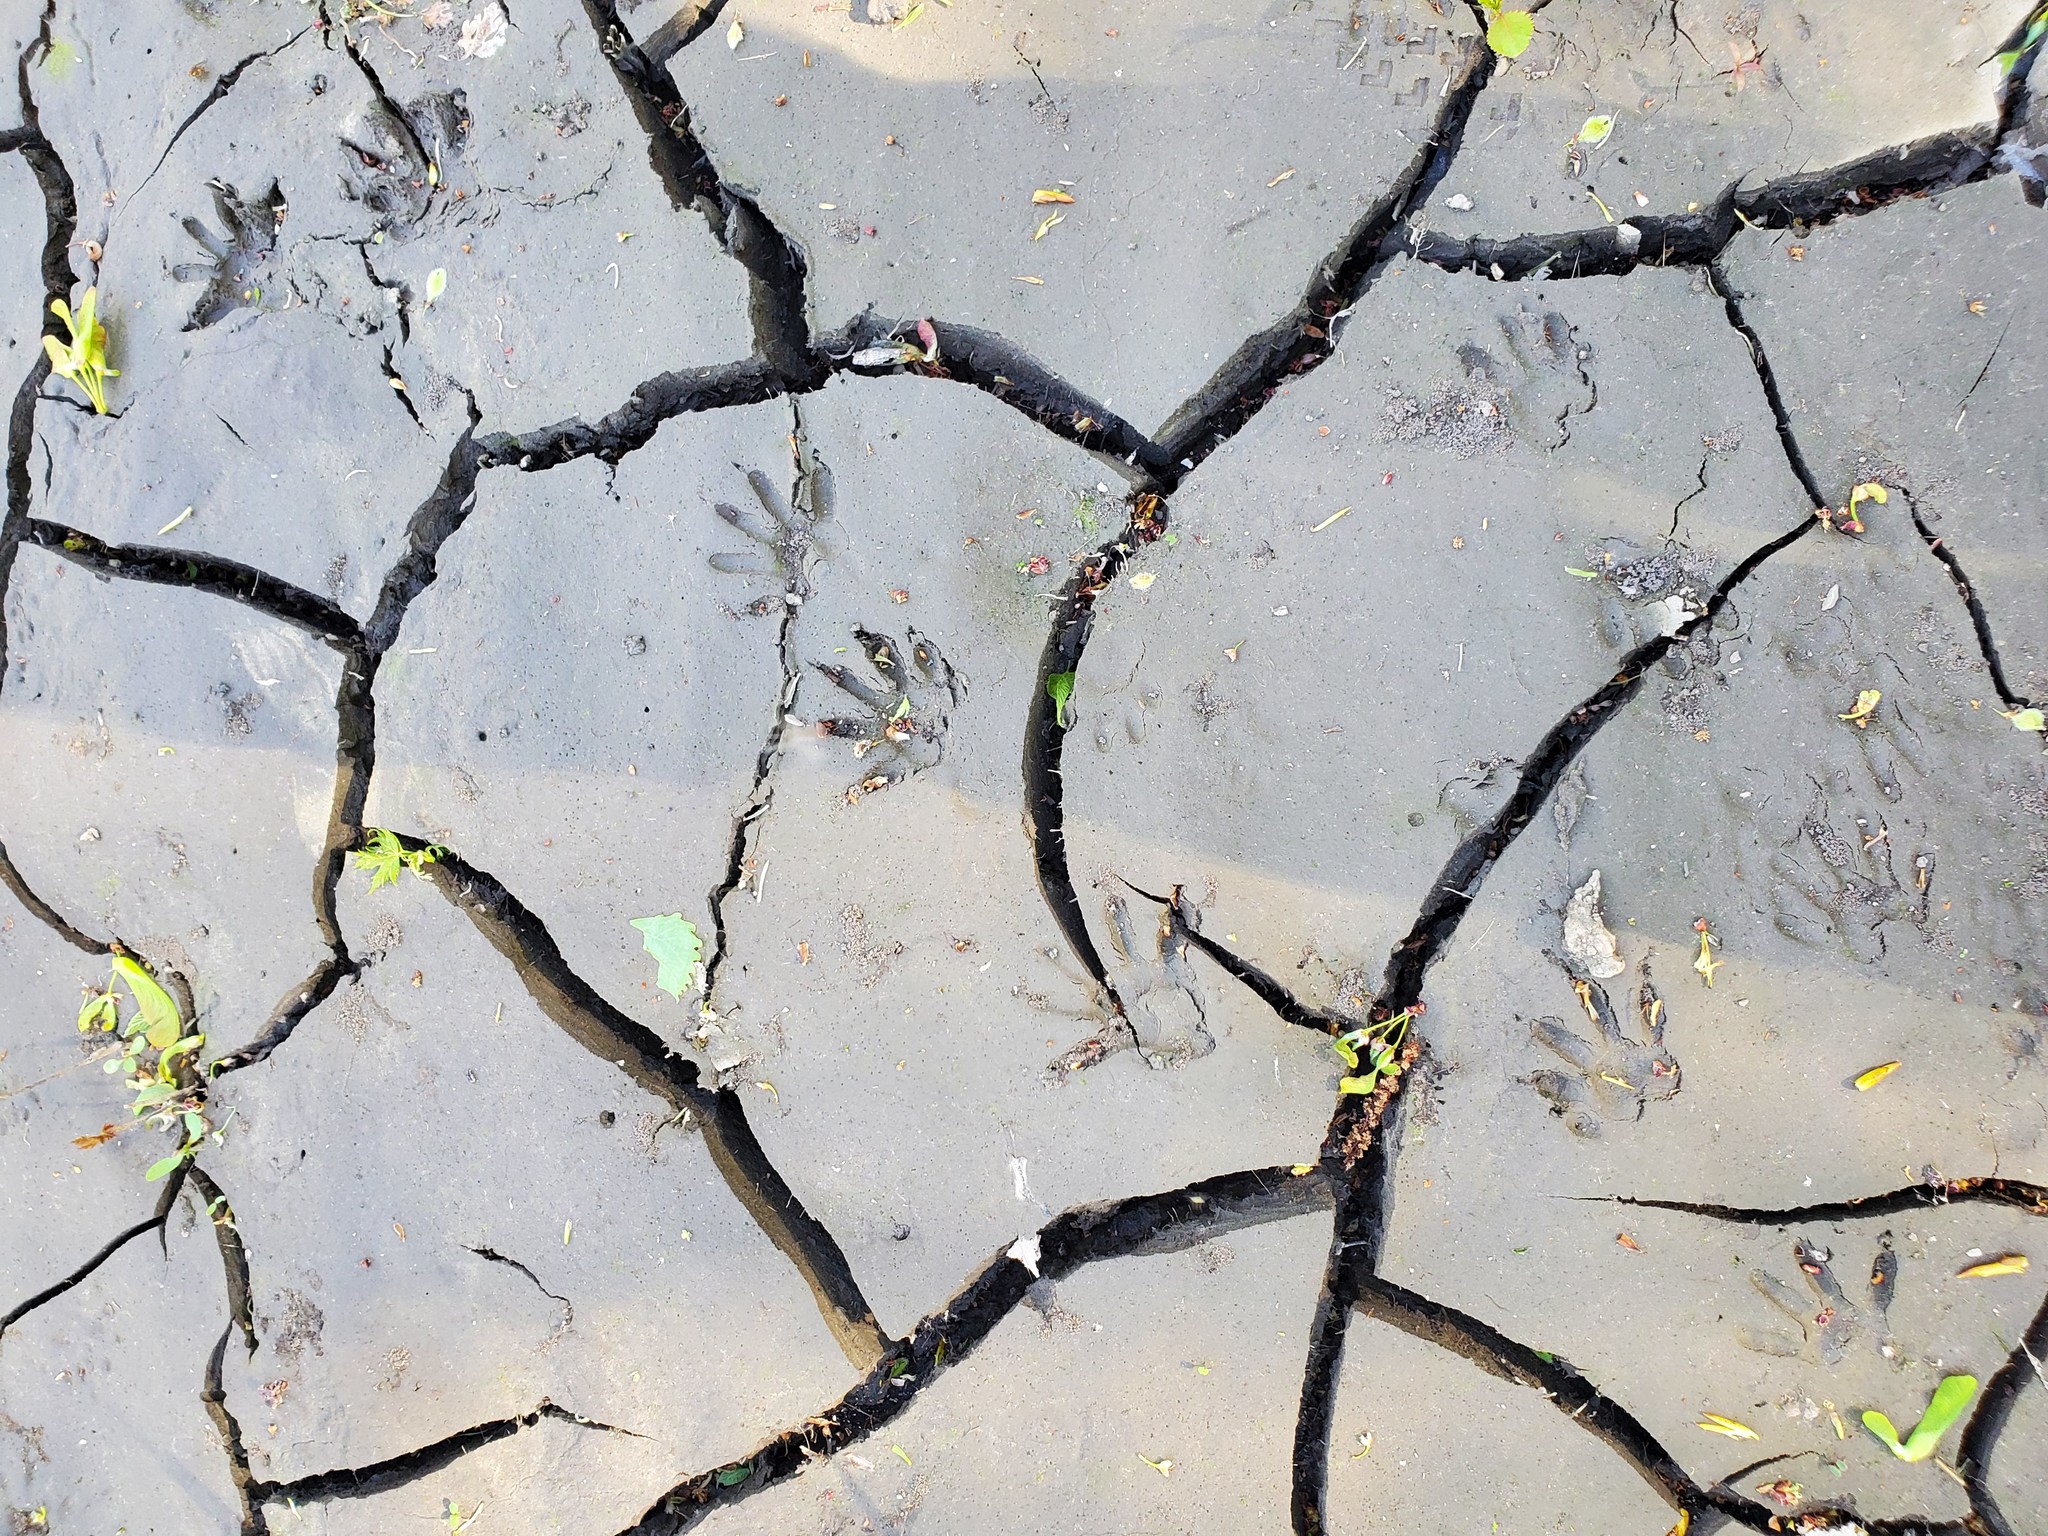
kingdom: Animalia
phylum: Chordata
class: Mammalia
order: Carnivora
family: Procyonidae
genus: Procyon
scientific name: Procyon lotor
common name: Raccoon
